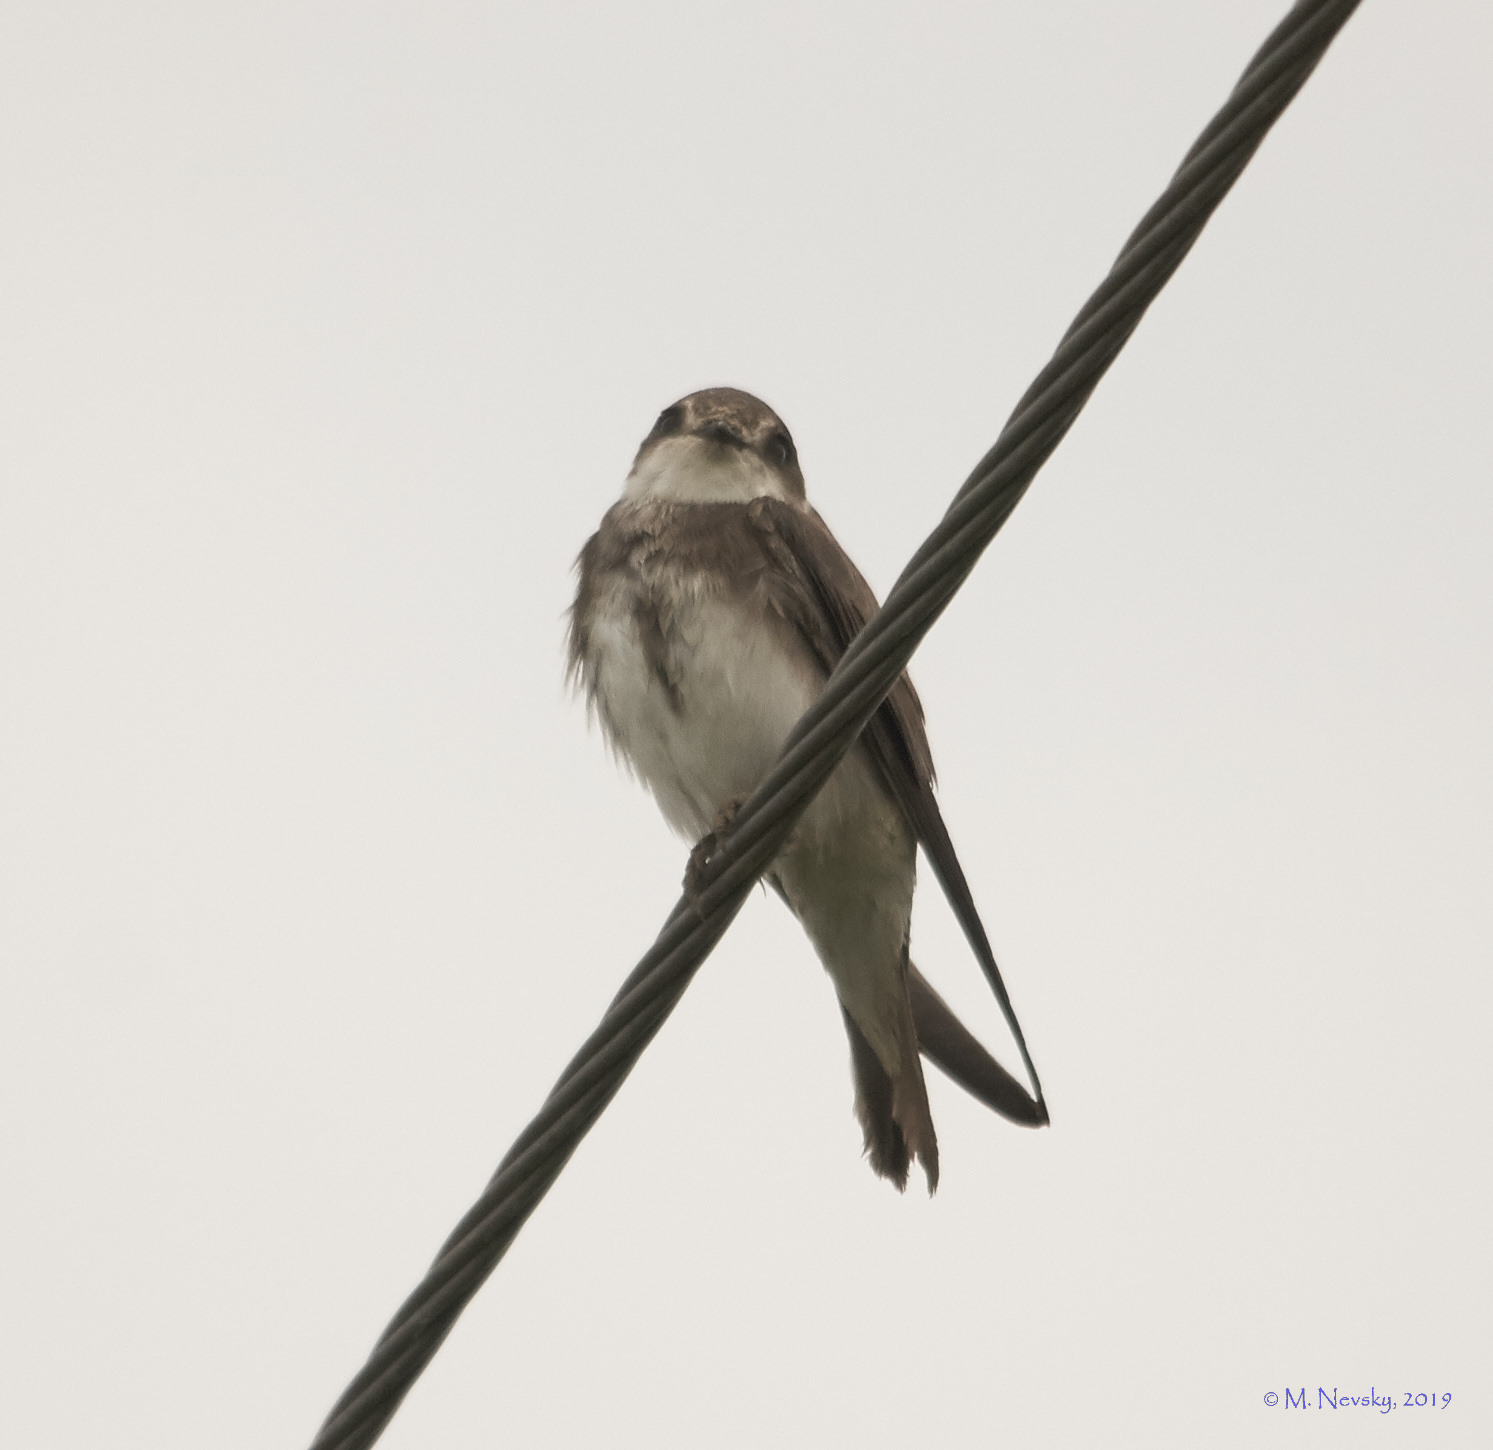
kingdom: Animalia
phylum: Chordata
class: Aves
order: Passeriformes
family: Hirundinidae
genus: Riparia
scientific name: Riparia riparia
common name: Sand martin
